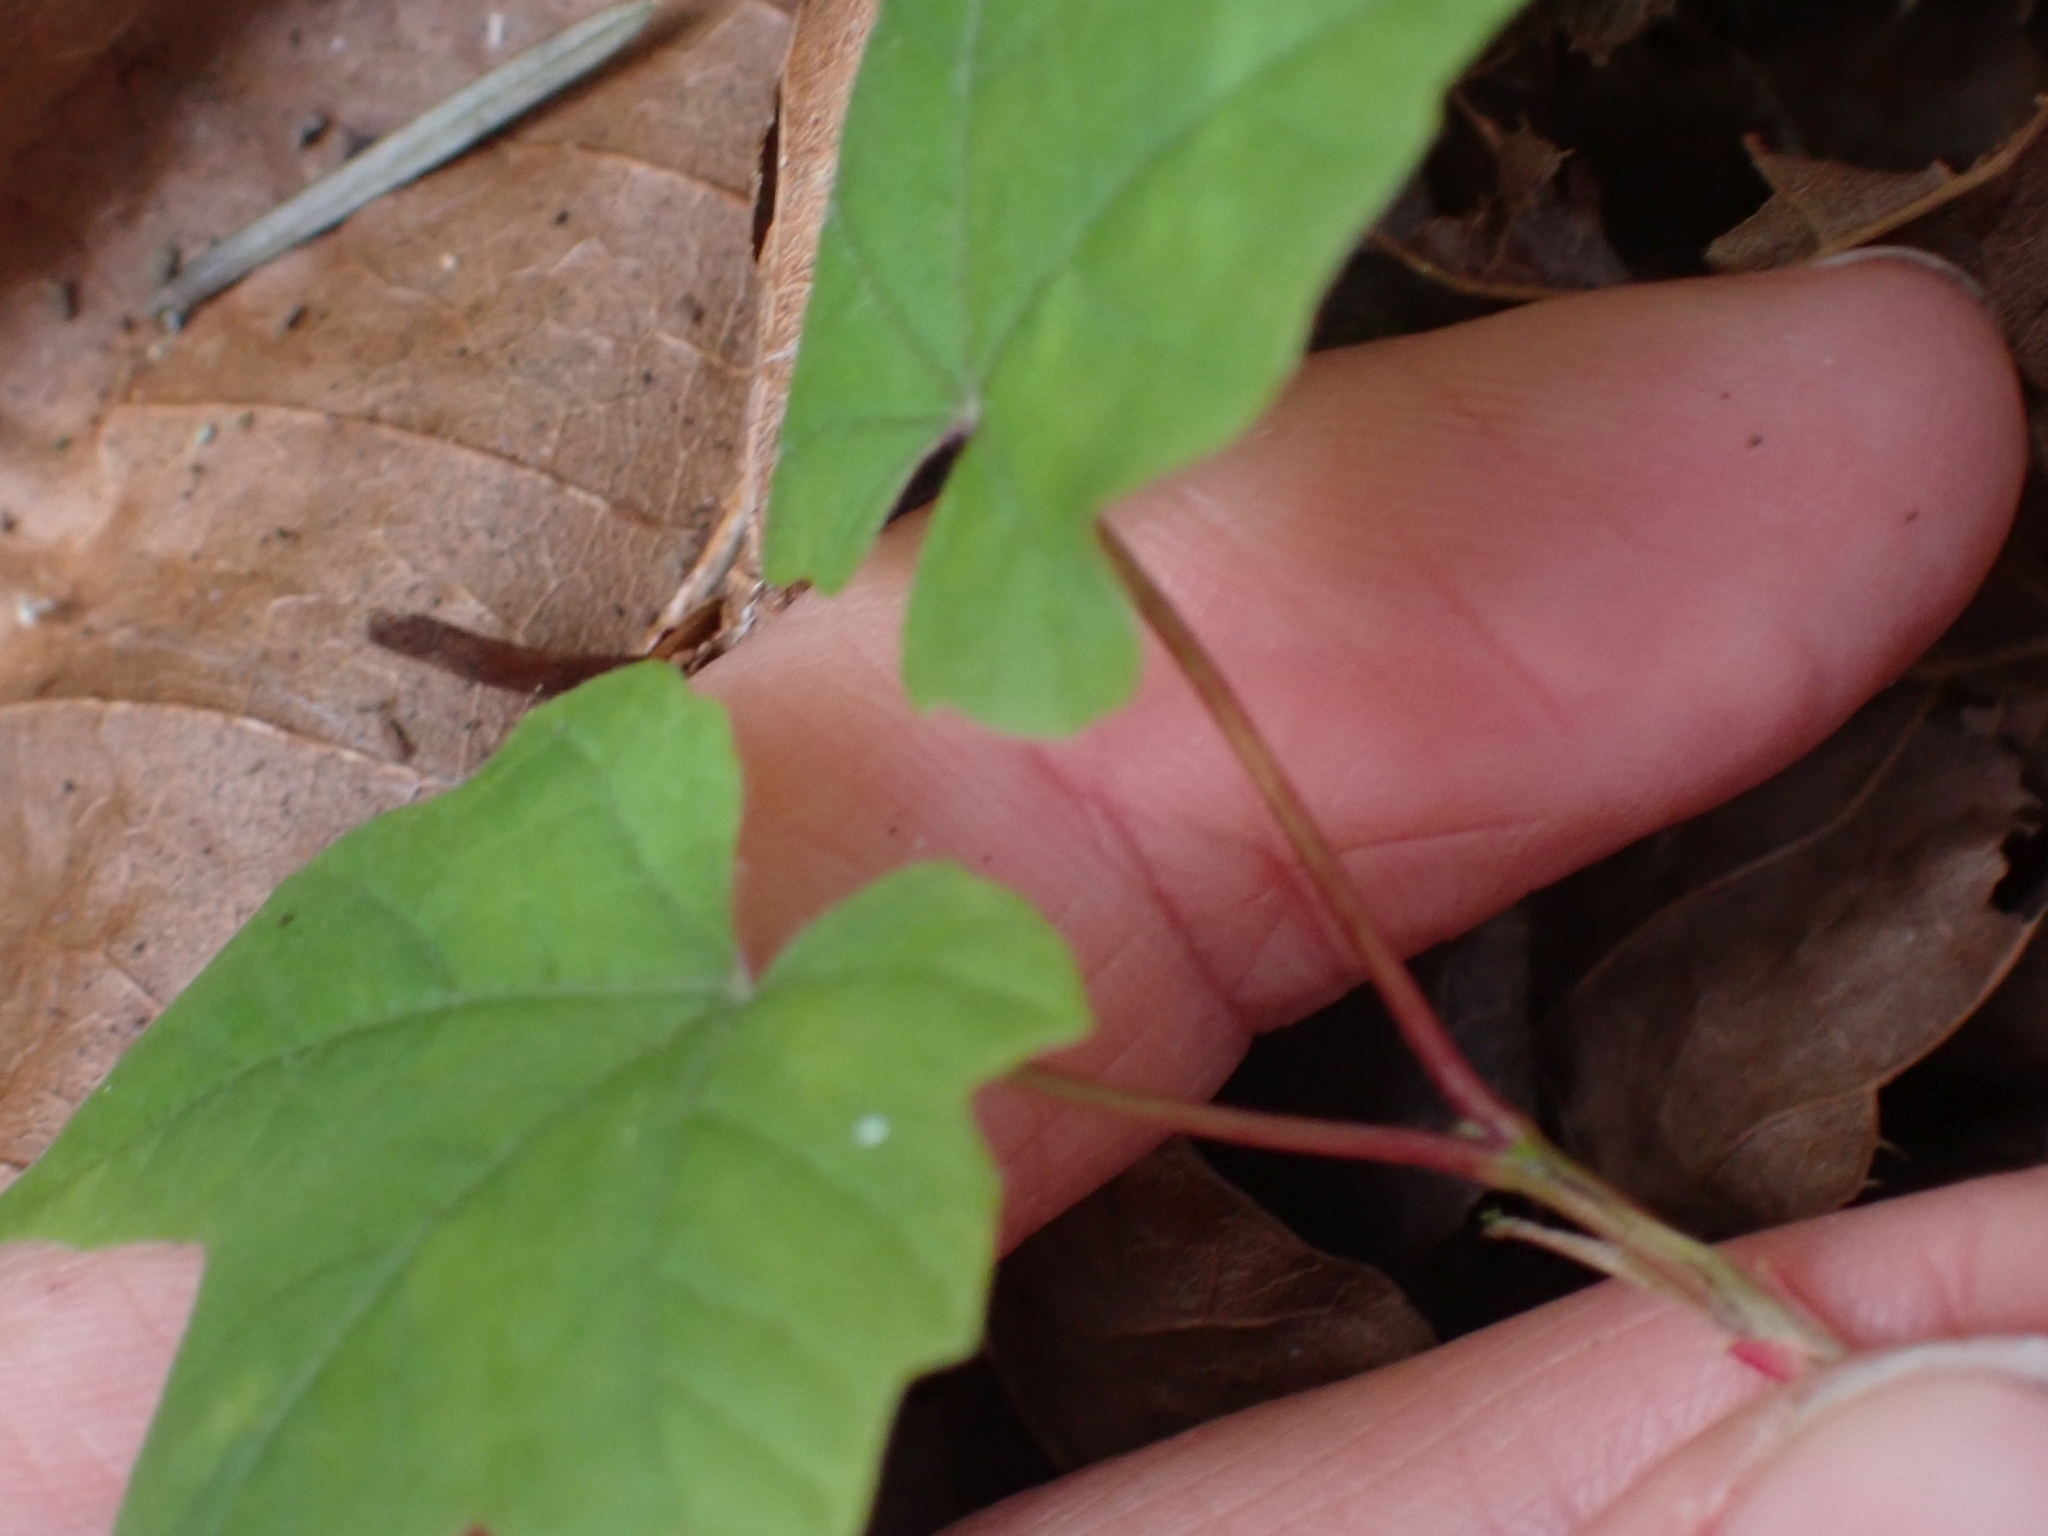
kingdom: Plantae
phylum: Tracheophyta
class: Magnoliopsida
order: Sapindales
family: Sapindaceae
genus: Acer
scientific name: Acer macrophyllum
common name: Oregon maple
